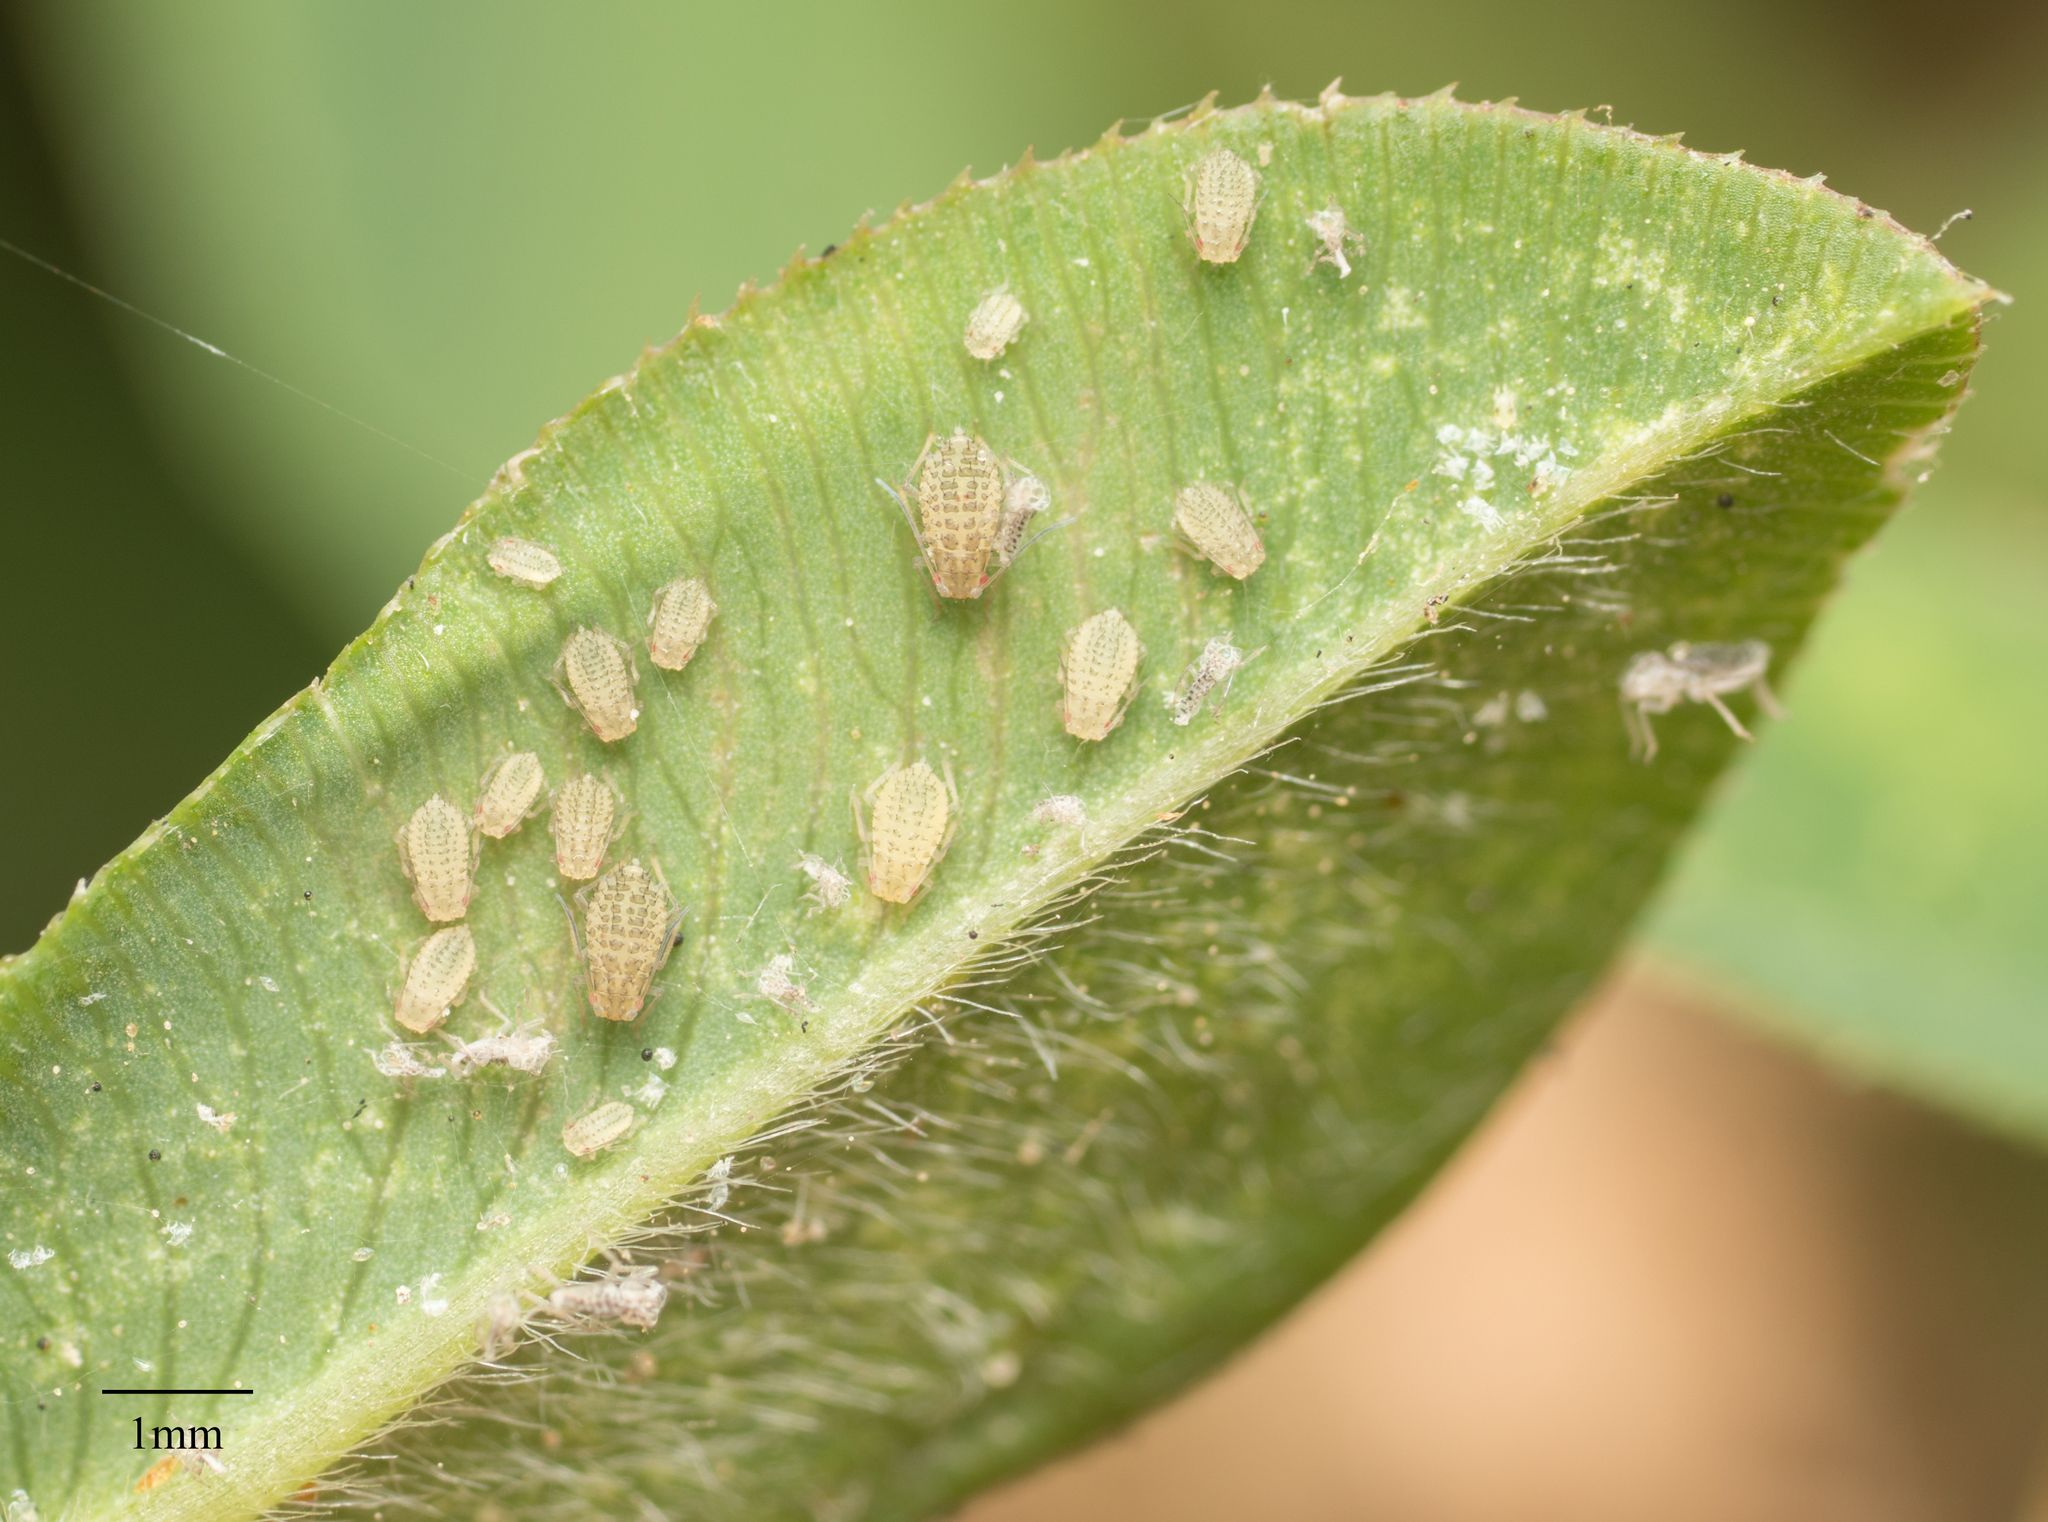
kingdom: Animalia
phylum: Arthropoda
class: Insecta
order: Hemiptera
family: Aphididae
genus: Therioaphis
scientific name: Therioaphis trifolii
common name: Spotted alfalfa aphid
